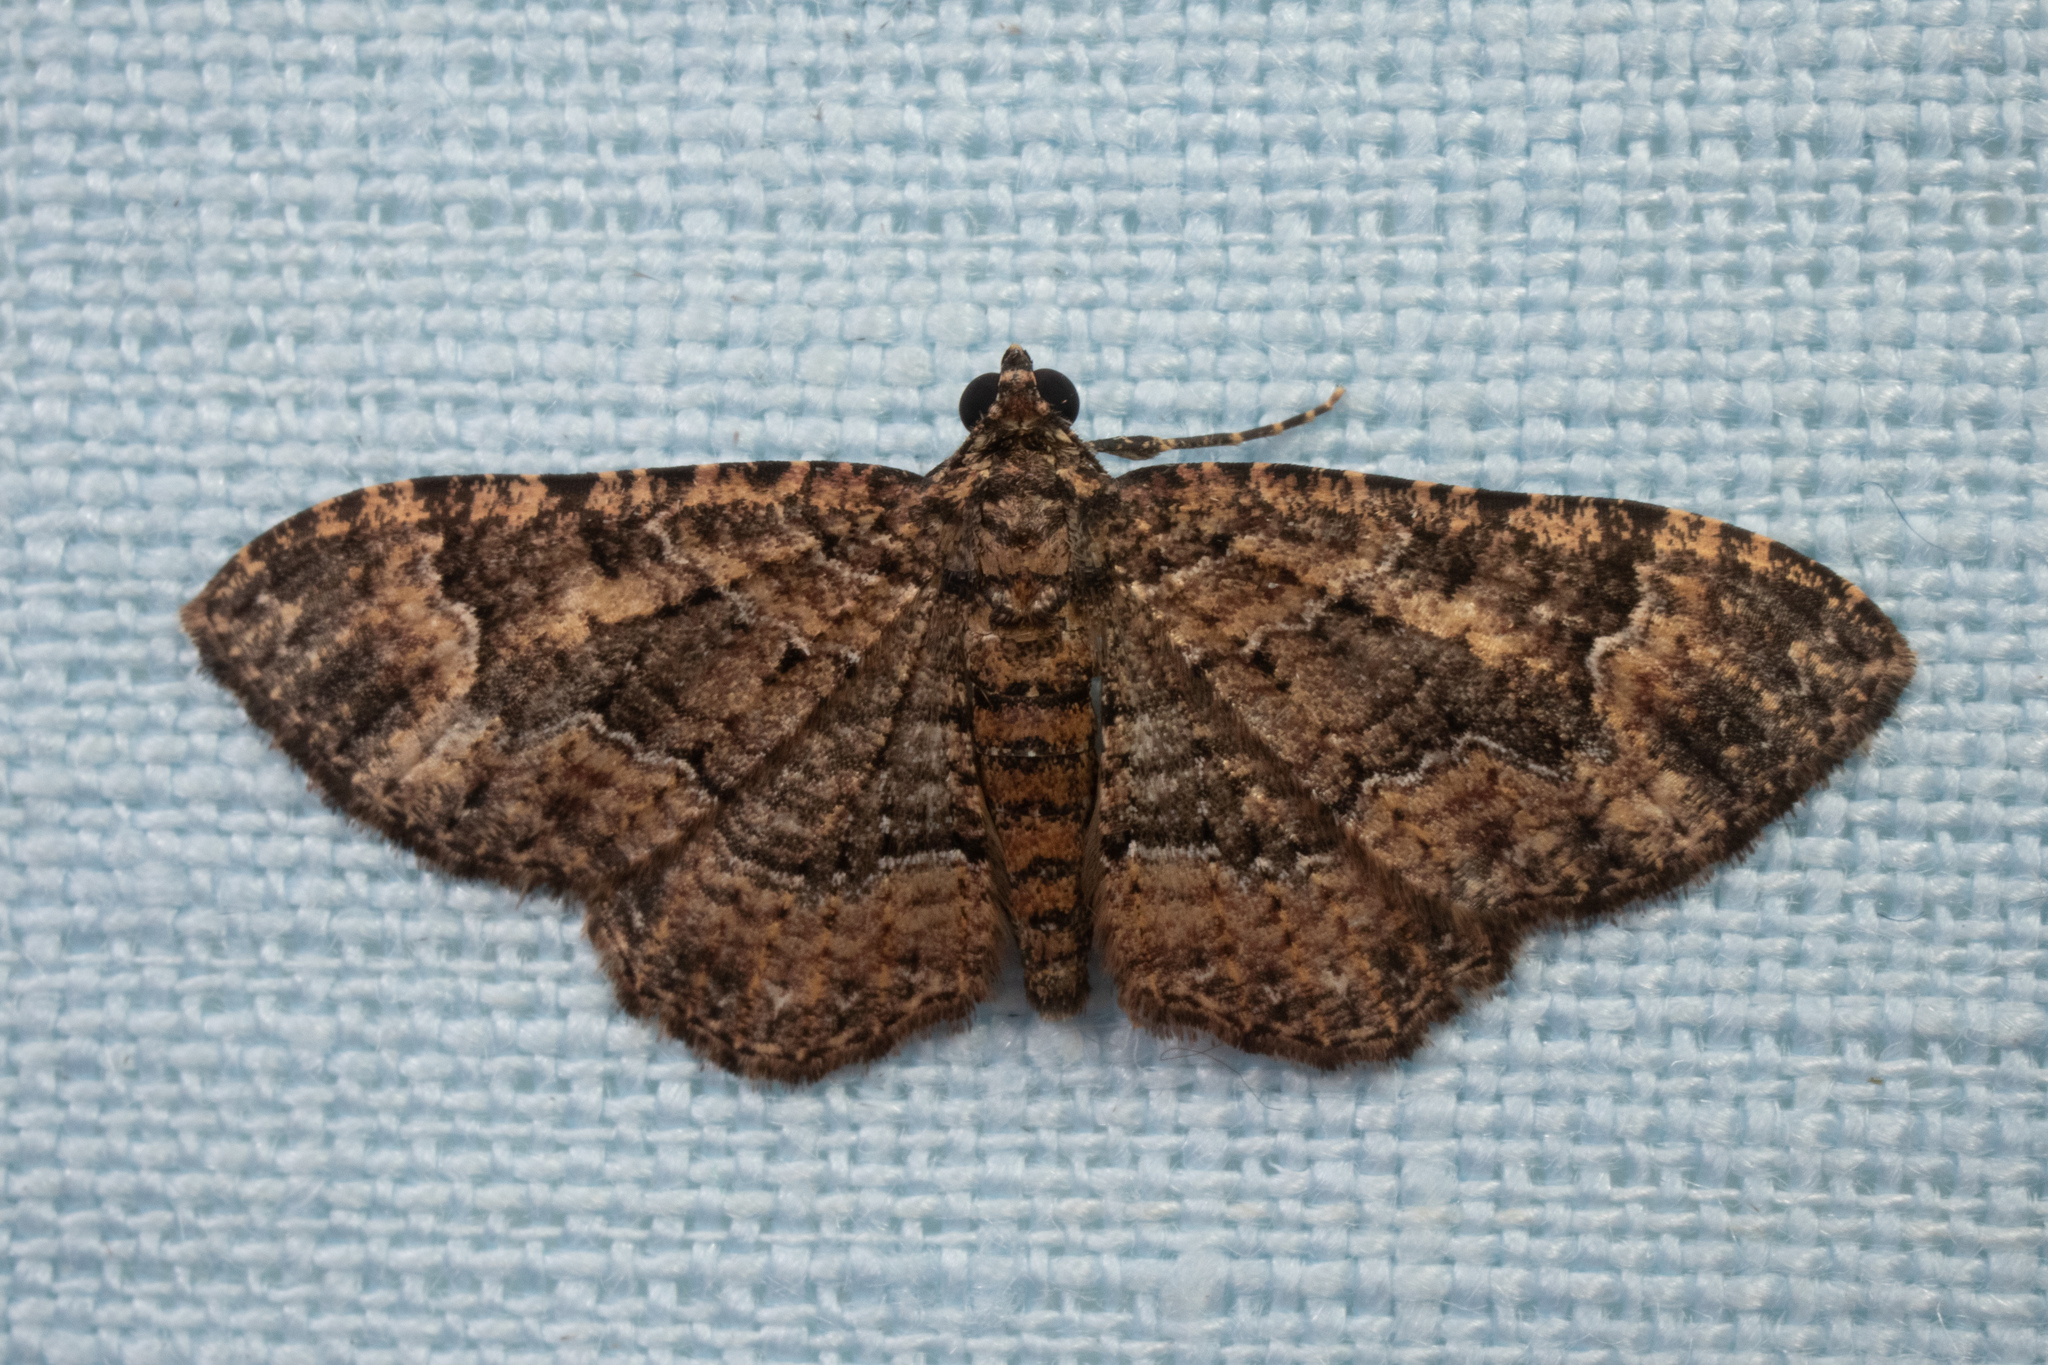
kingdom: Animalia
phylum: Arthropoda
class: Insecta
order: Lepidoptera
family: Geometridae
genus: Disclisioprocta
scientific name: Disclisioprocta stellata
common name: Somber carpet
